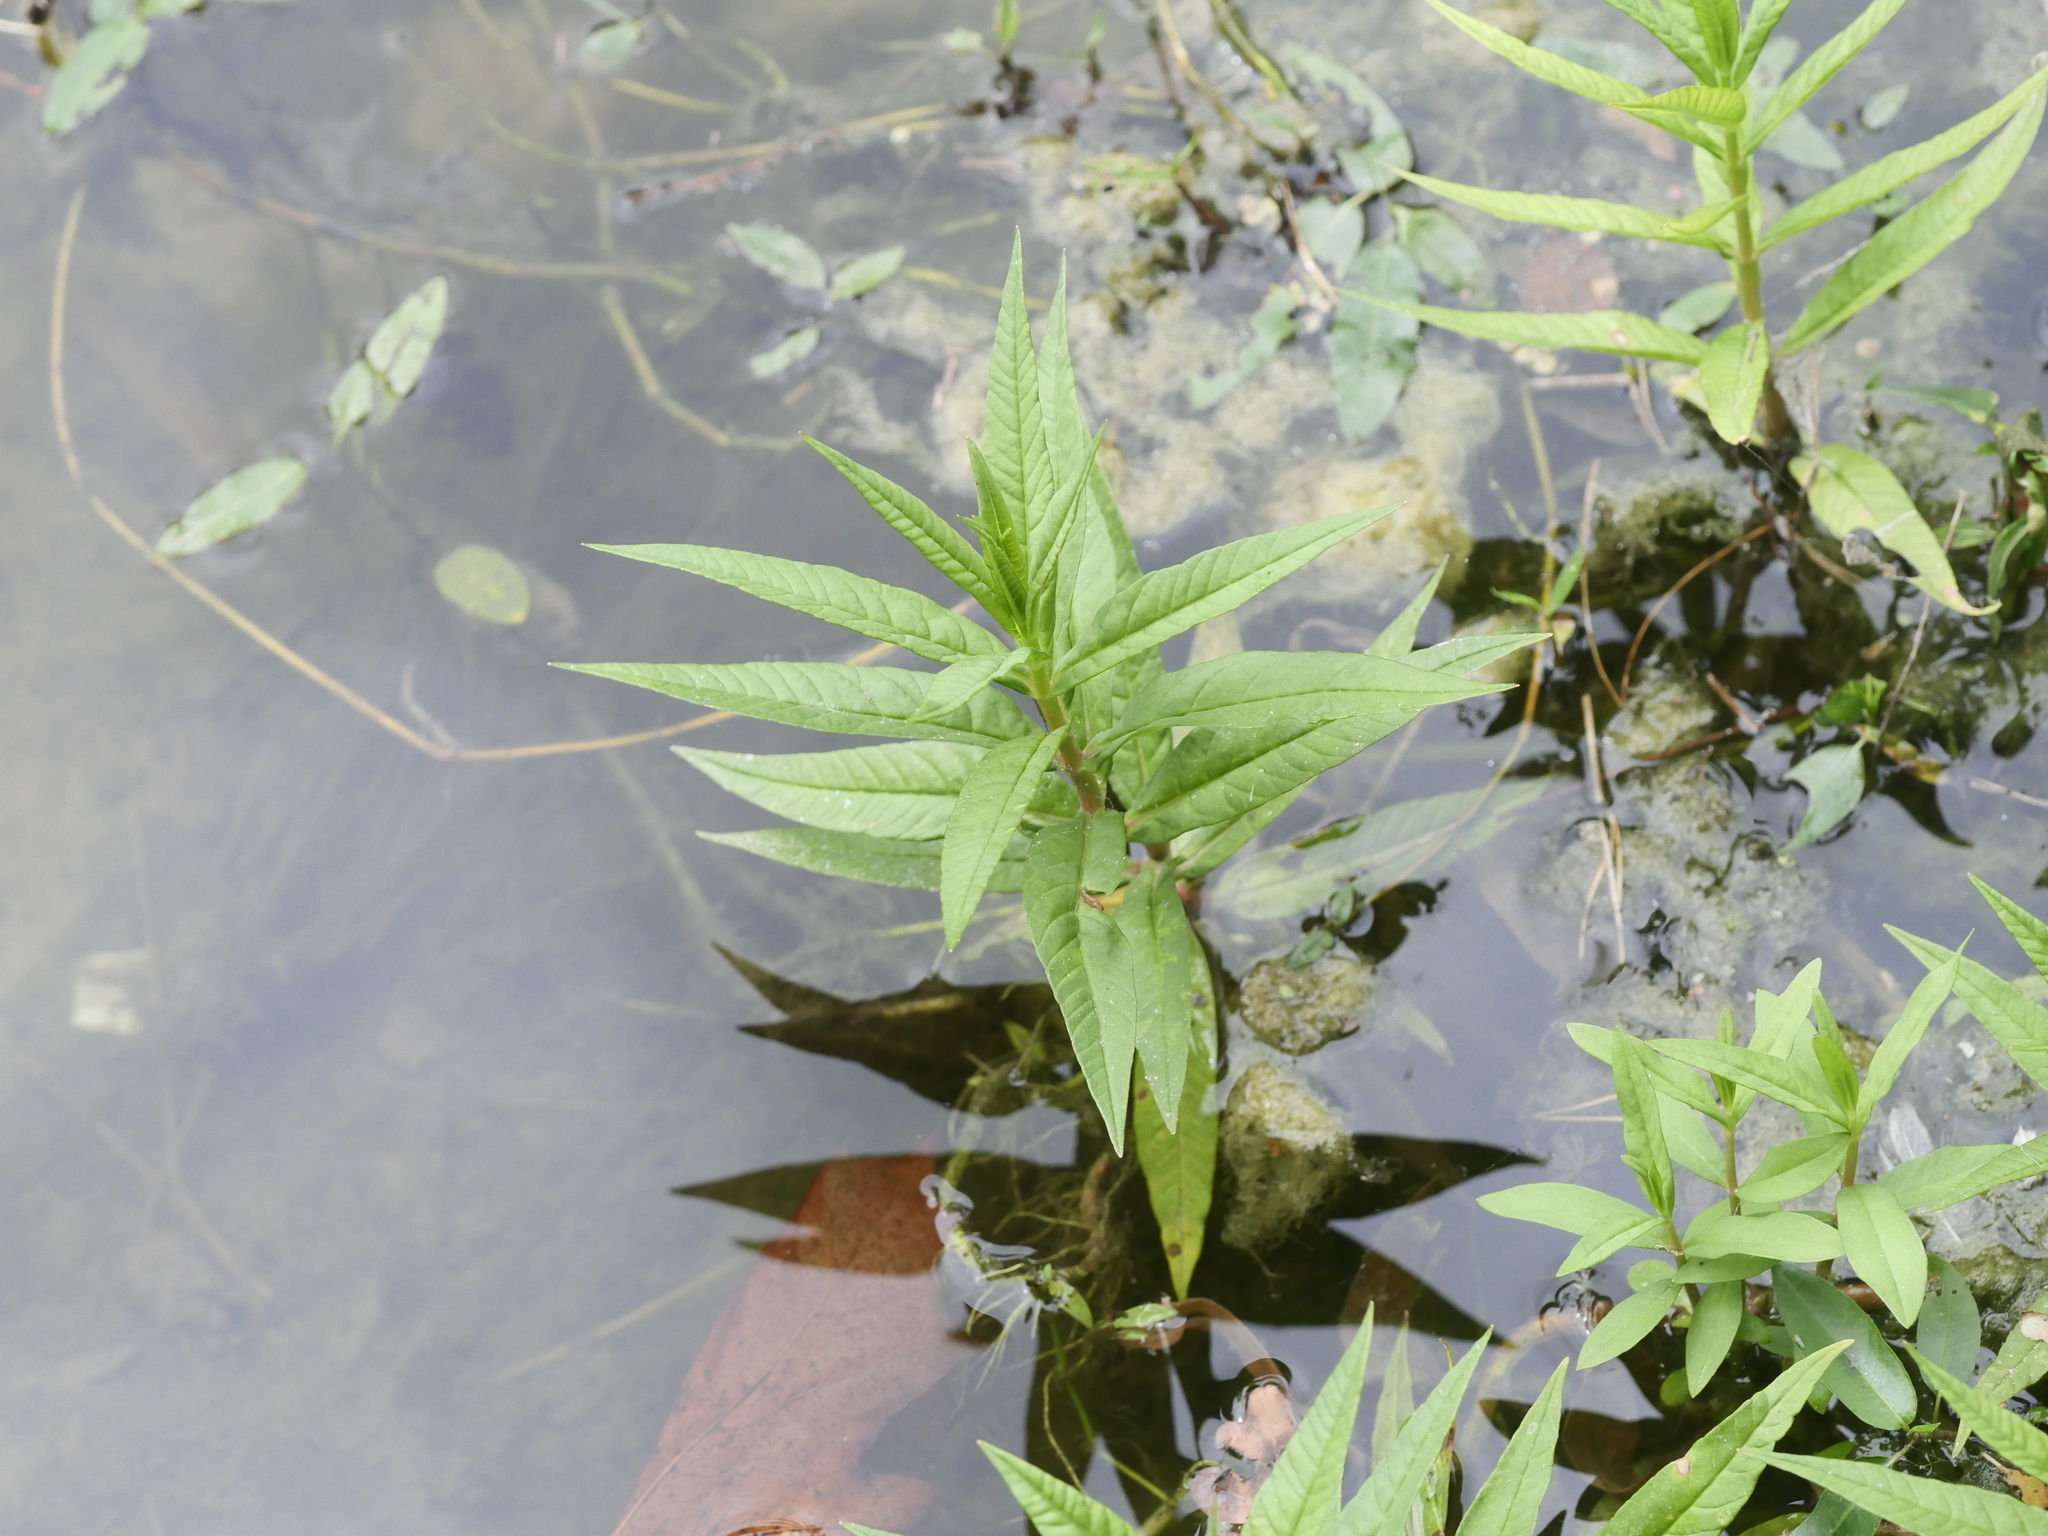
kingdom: Plantae
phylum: Tracheophyta
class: Magnoliopsida
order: Ericales
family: Primulaceae
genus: Lysimachia
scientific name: Lysimachia thyrsiflora
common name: Tufted loosestrife
